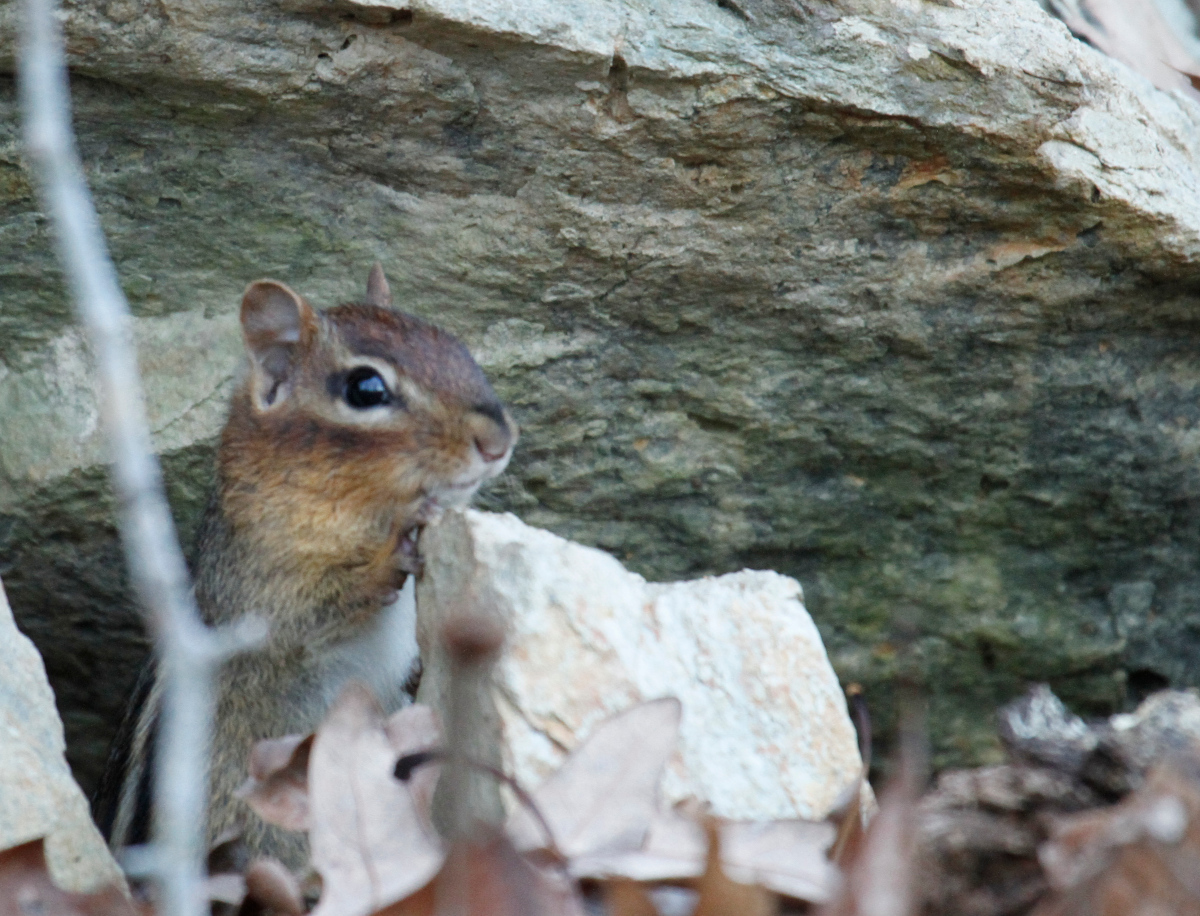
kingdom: Animalia
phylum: Chordata
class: Mammalia
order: Rodentia
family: Sciuridae
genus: Tamias
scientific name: Tamias striatus
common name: Eastern chipmunk
